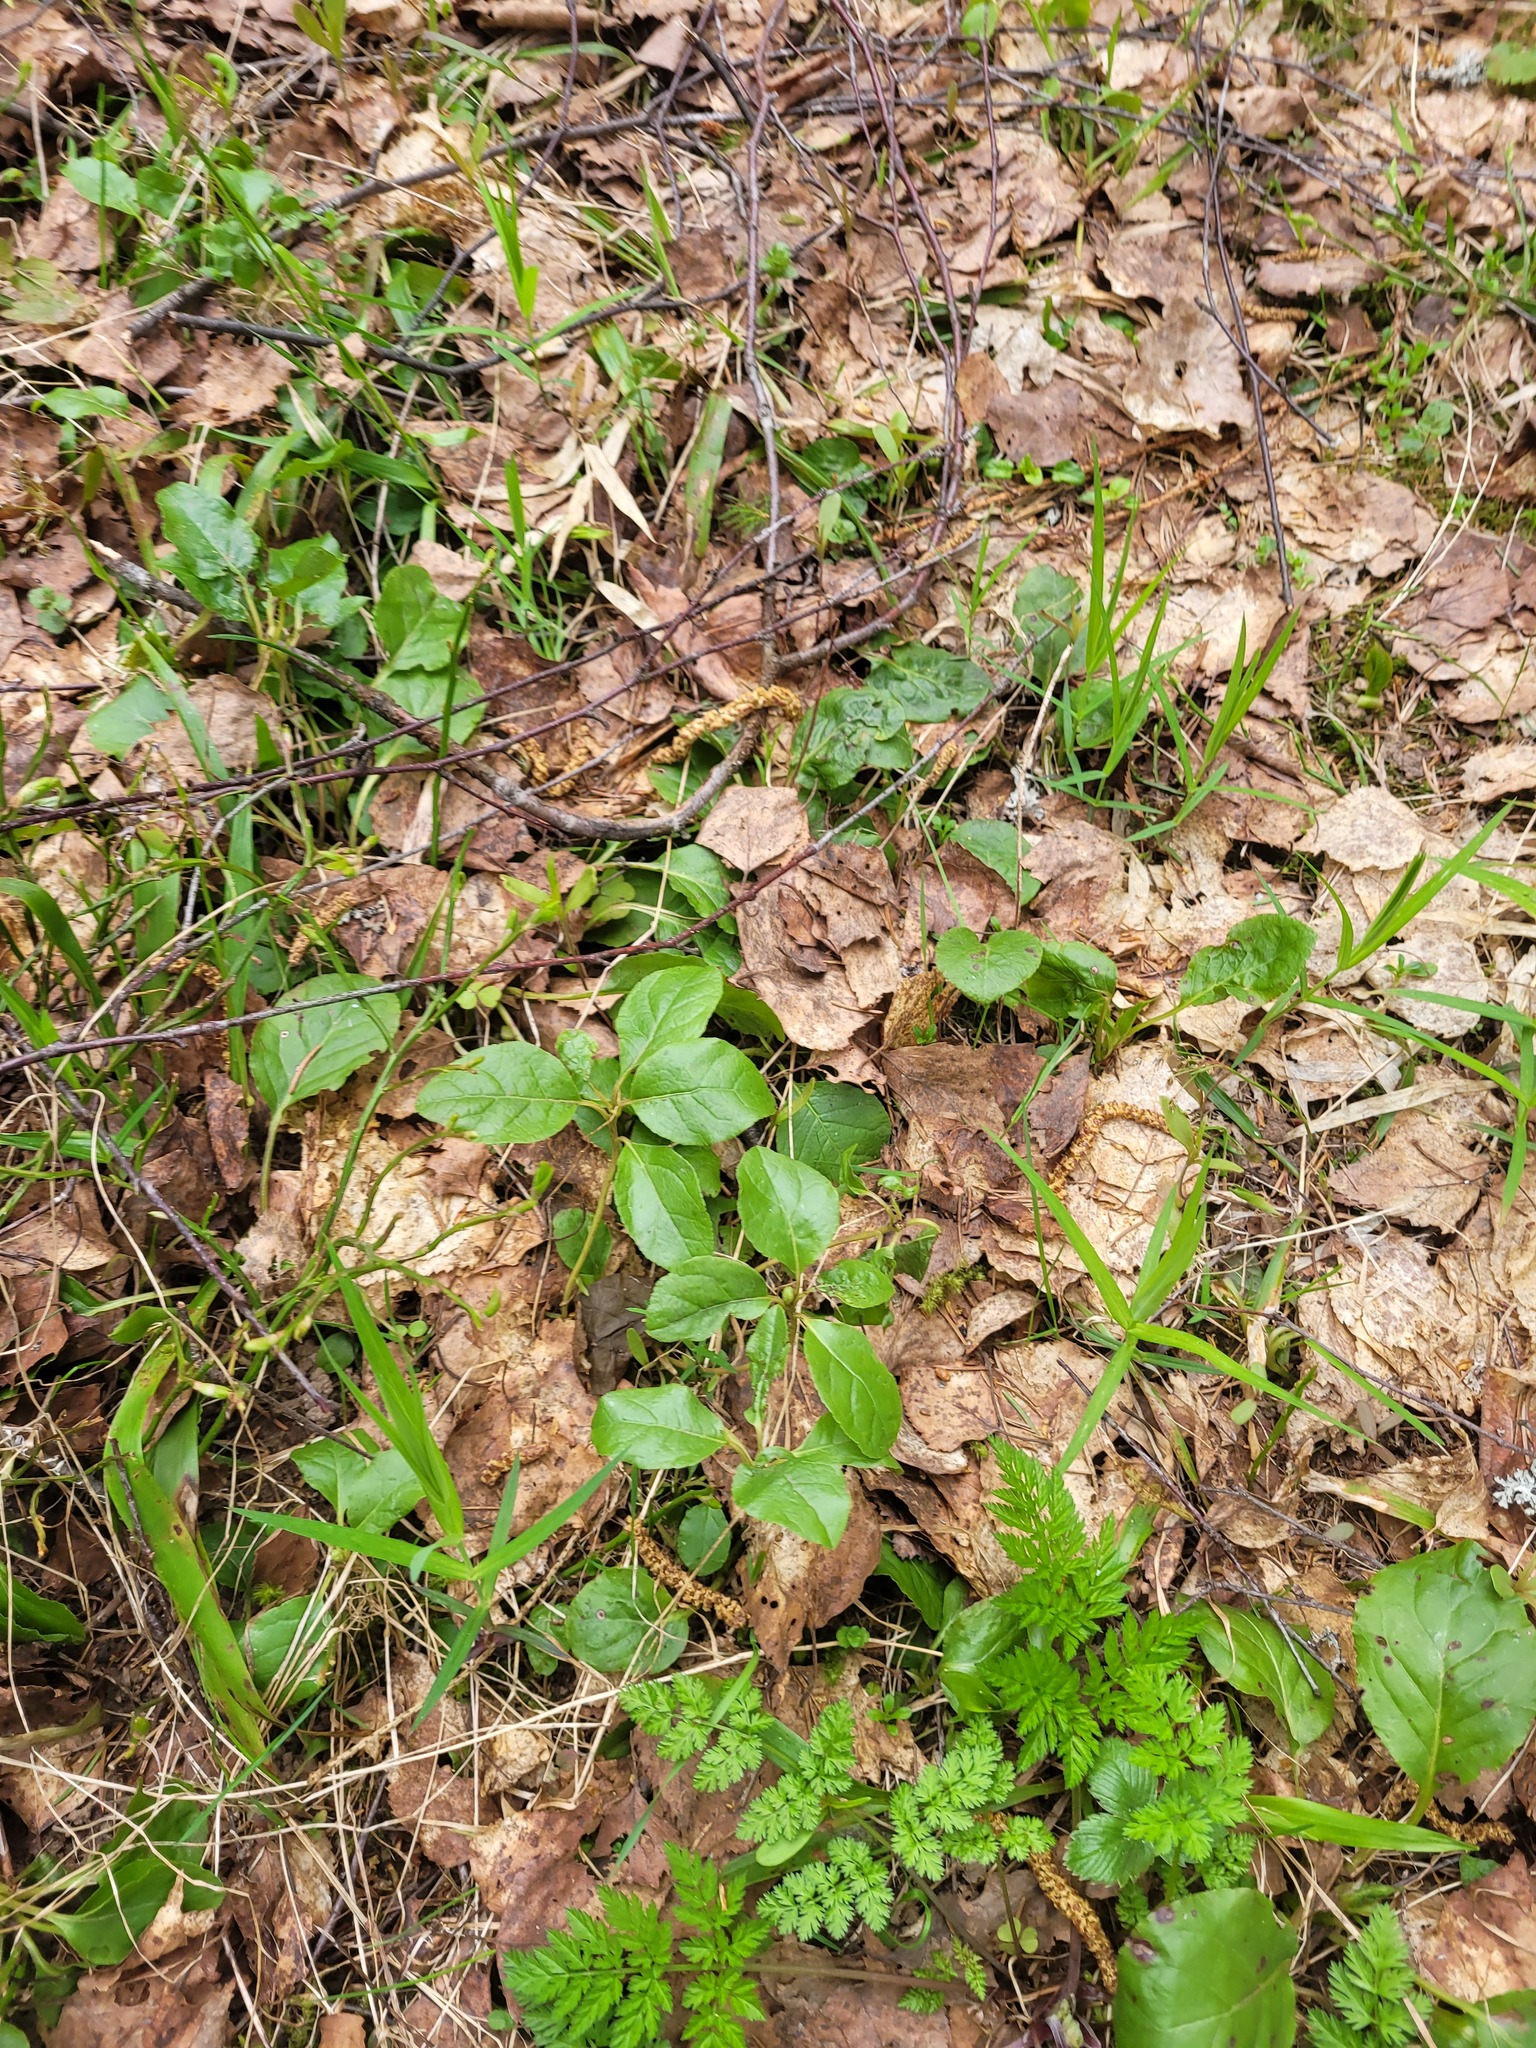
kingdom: Plantae
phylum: Tracheophyta
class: Magnoliopsida
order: Ericales
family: Ericaceae
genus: Orthilia
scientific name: Orthilia secunda
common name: One-sided orthilia
